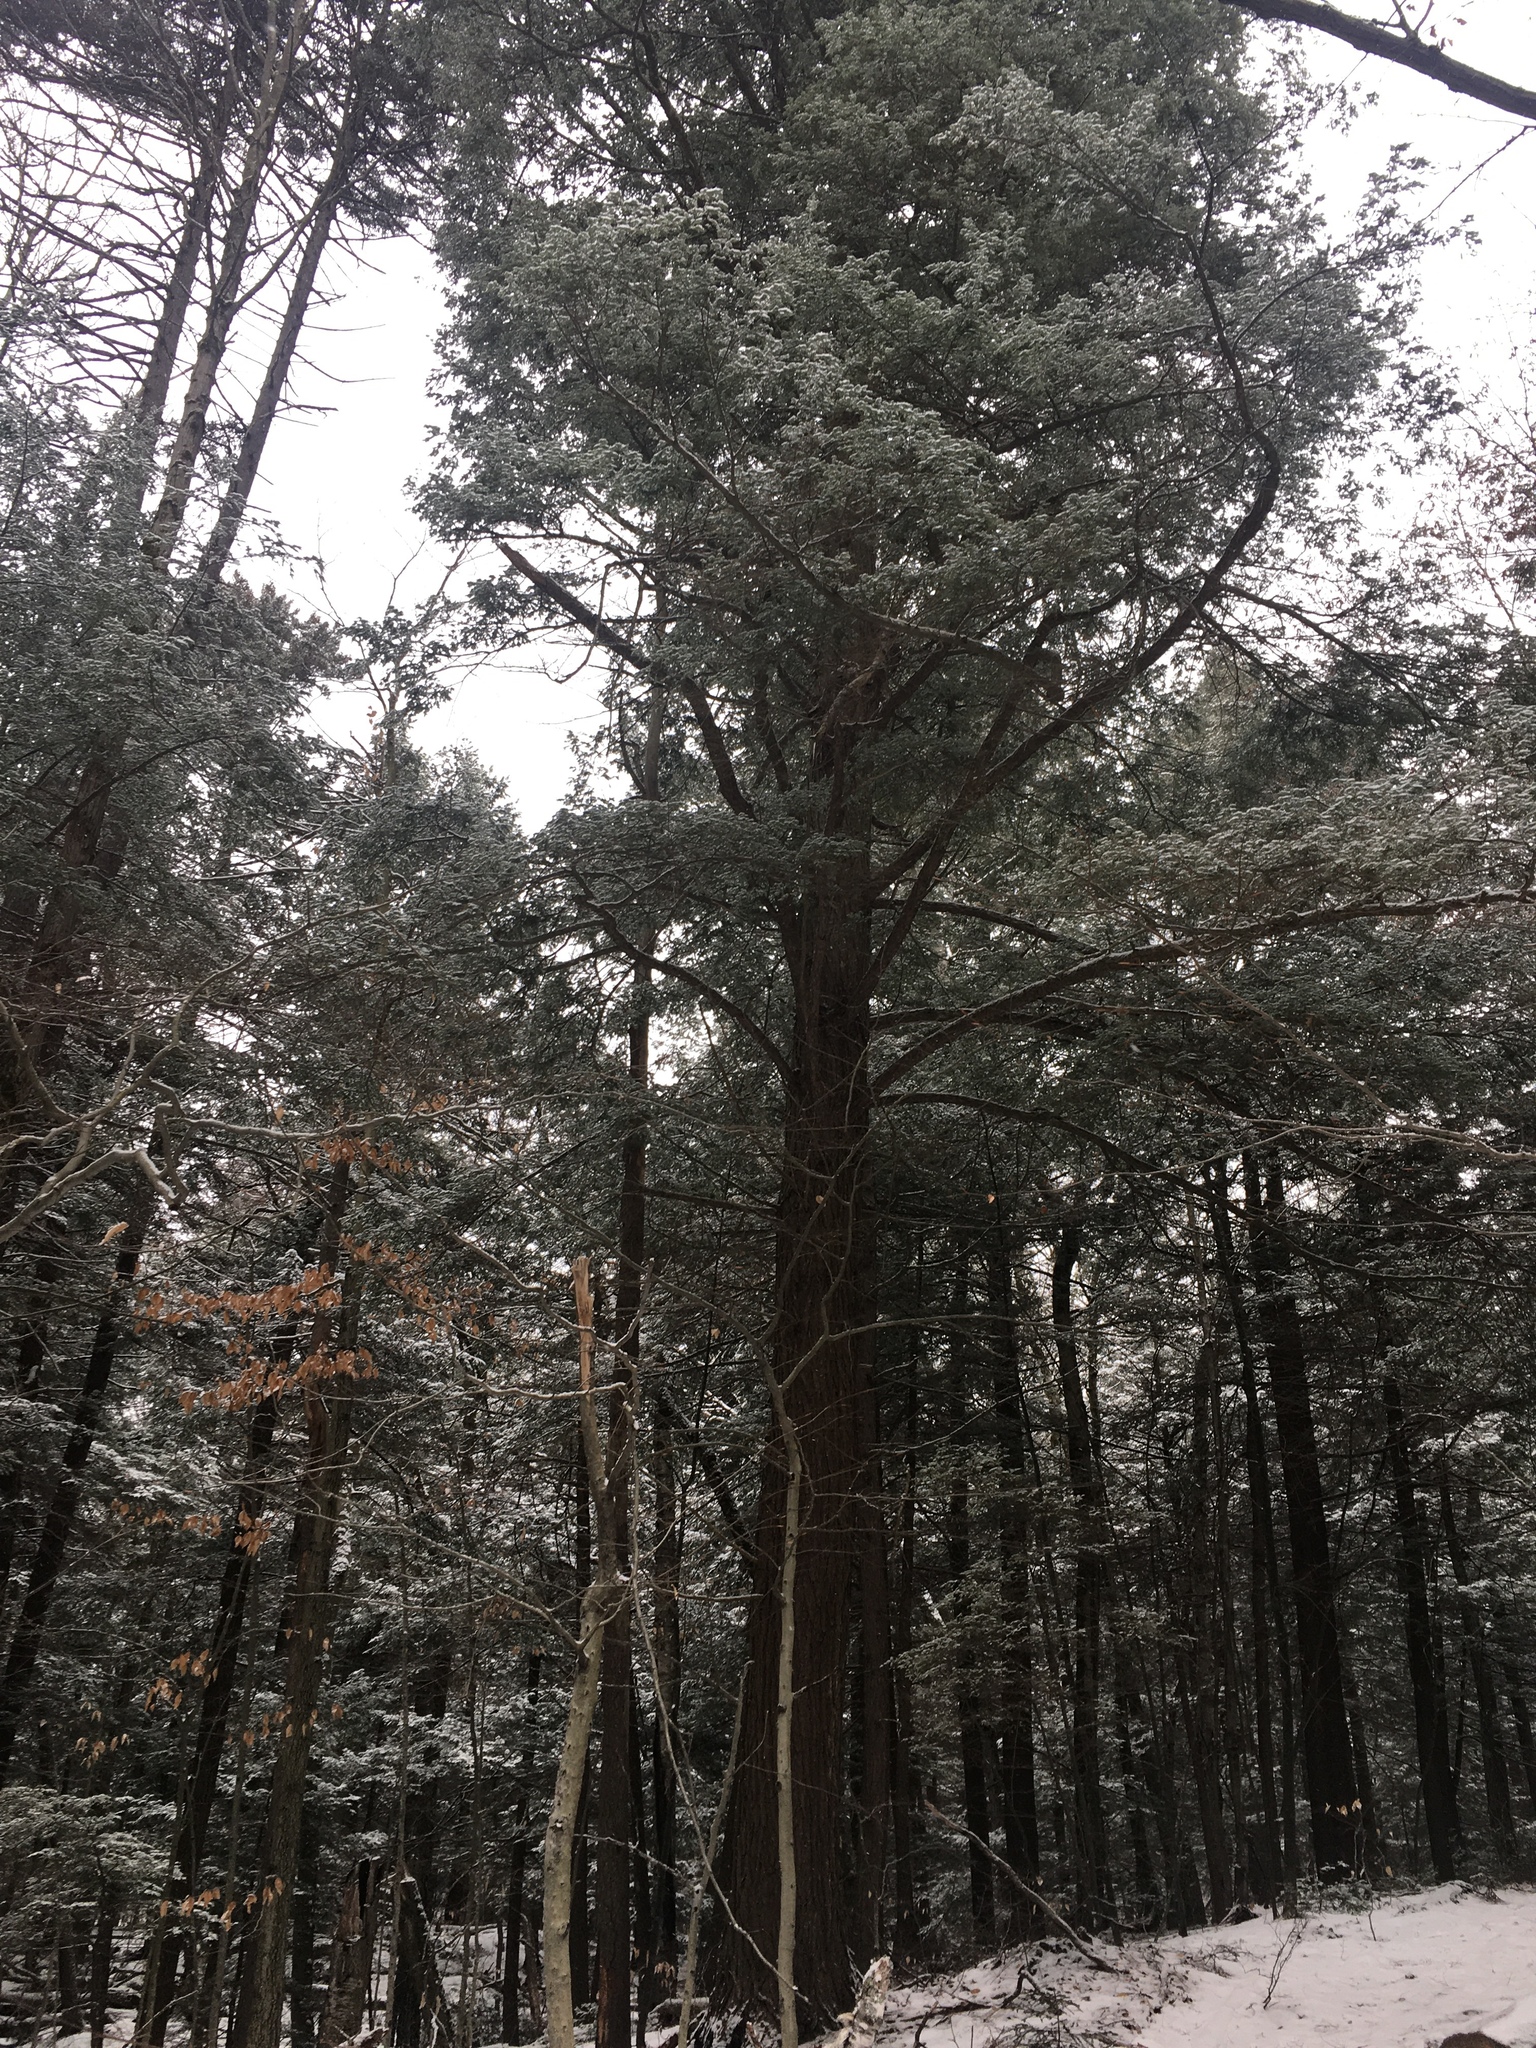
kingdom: Plantae
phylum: Tracheophyta
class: Pinopsida
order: Pinales
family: Pinaceae
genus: Tsuga
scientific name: Tsuga canadensis
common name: Eastern hemlock
